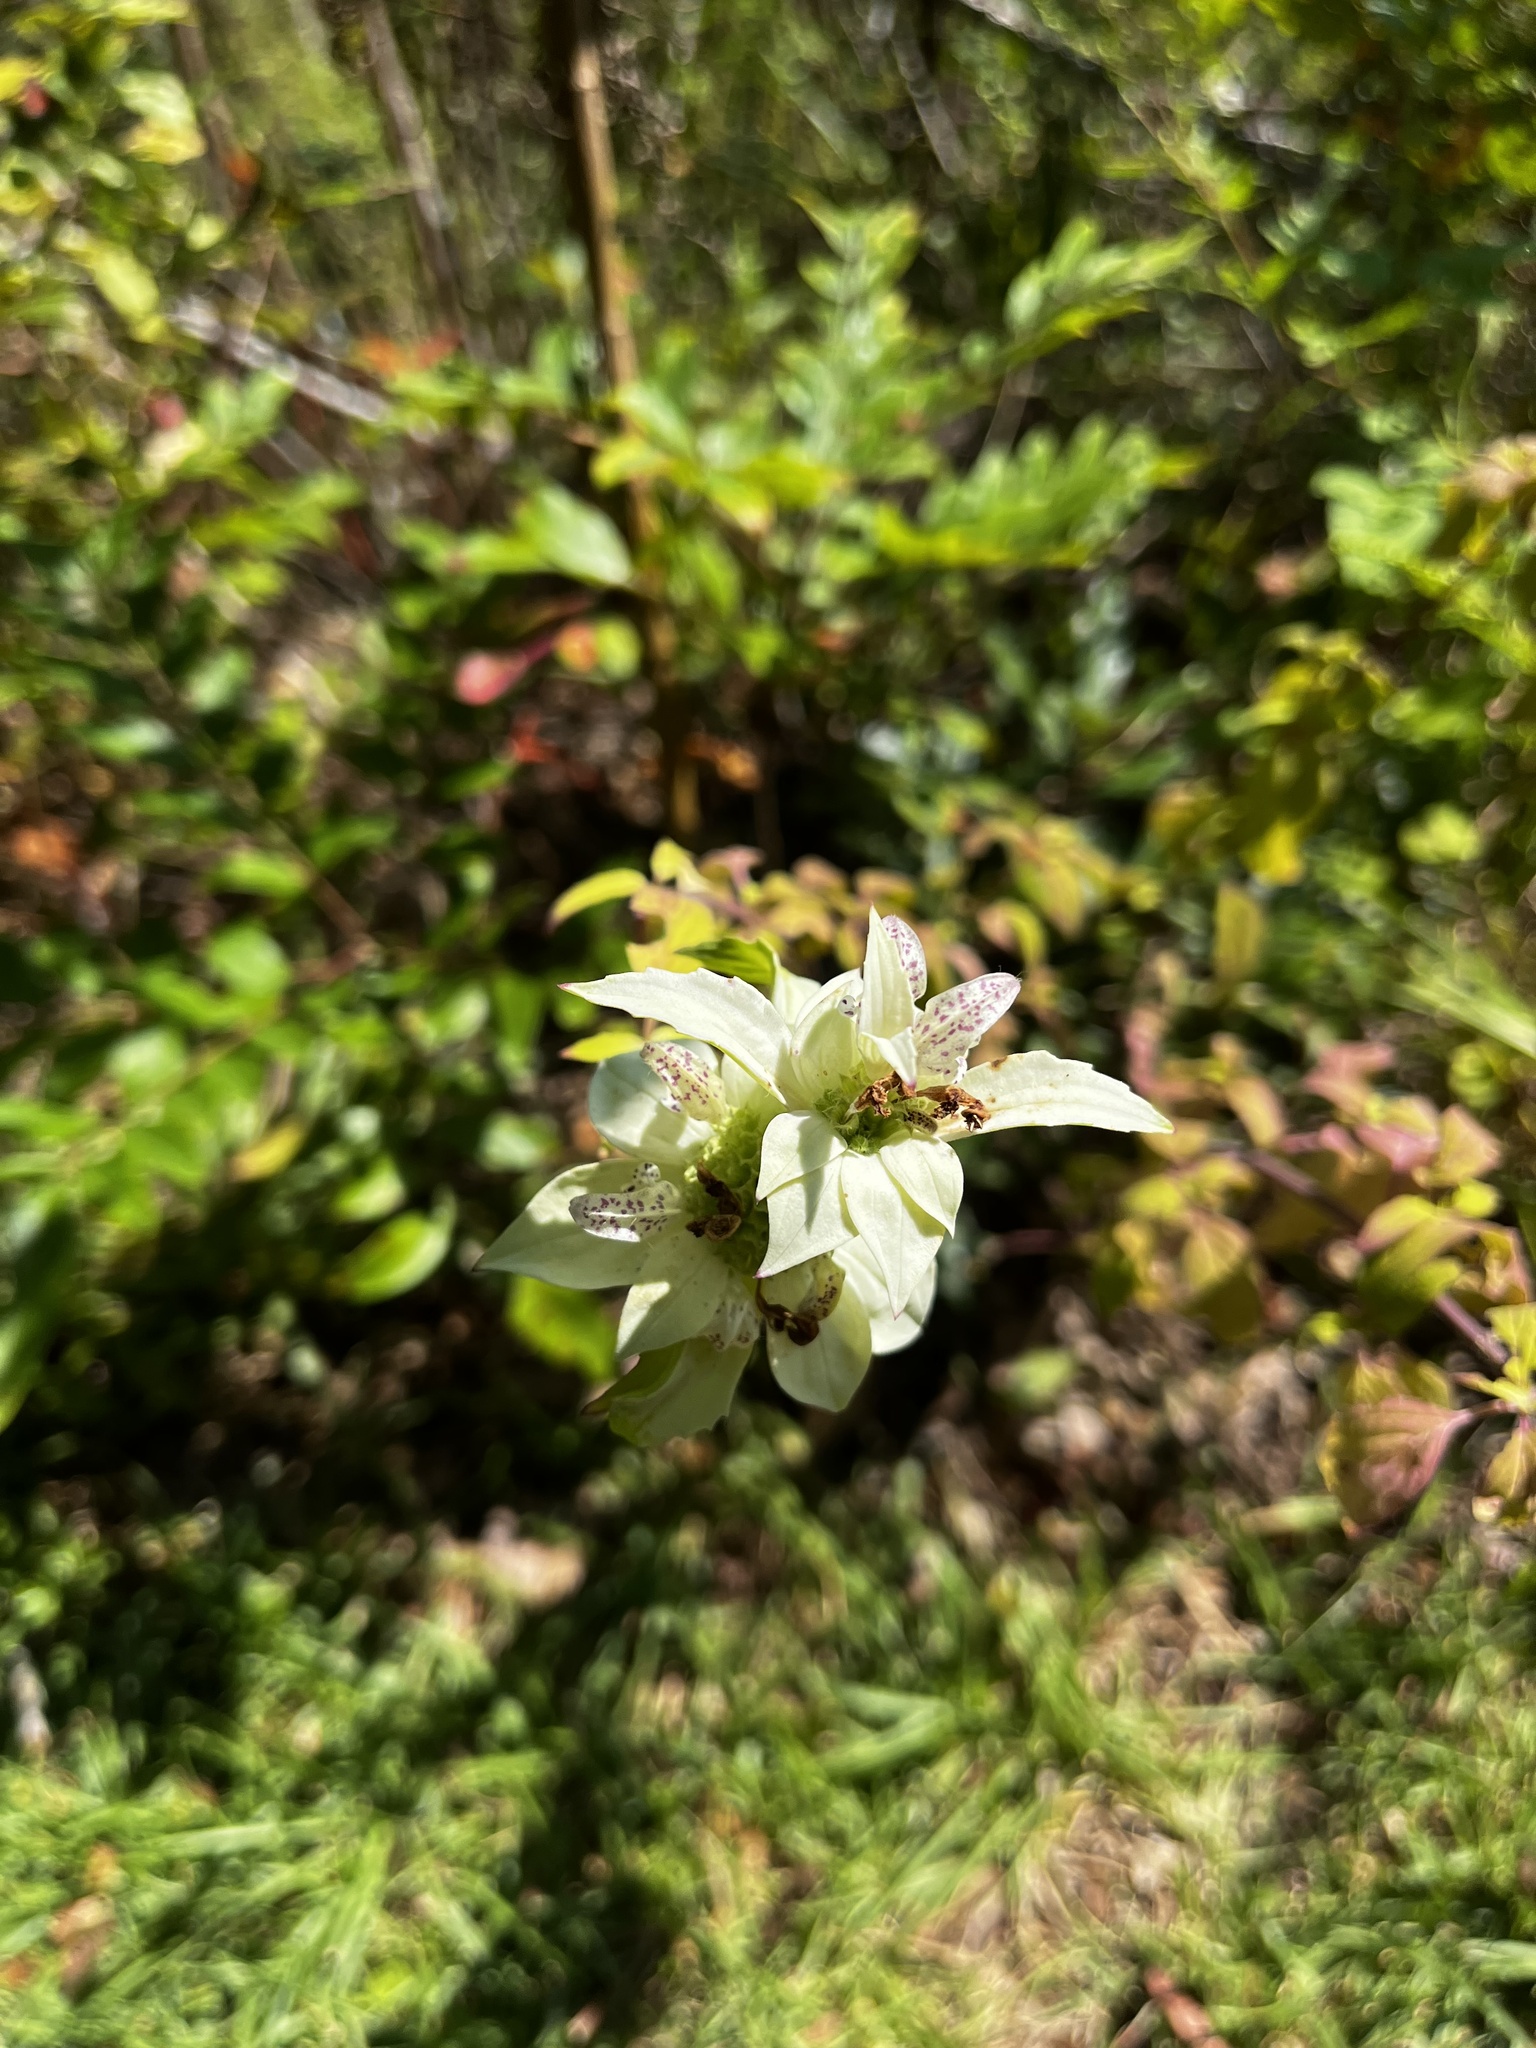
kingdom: Plantae
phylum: Tracheophyta
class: Magnoliopsida
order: Lamiales
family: Lamiaceae
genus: Monarda
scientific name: Monarda punctata
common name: Dotted monarda
